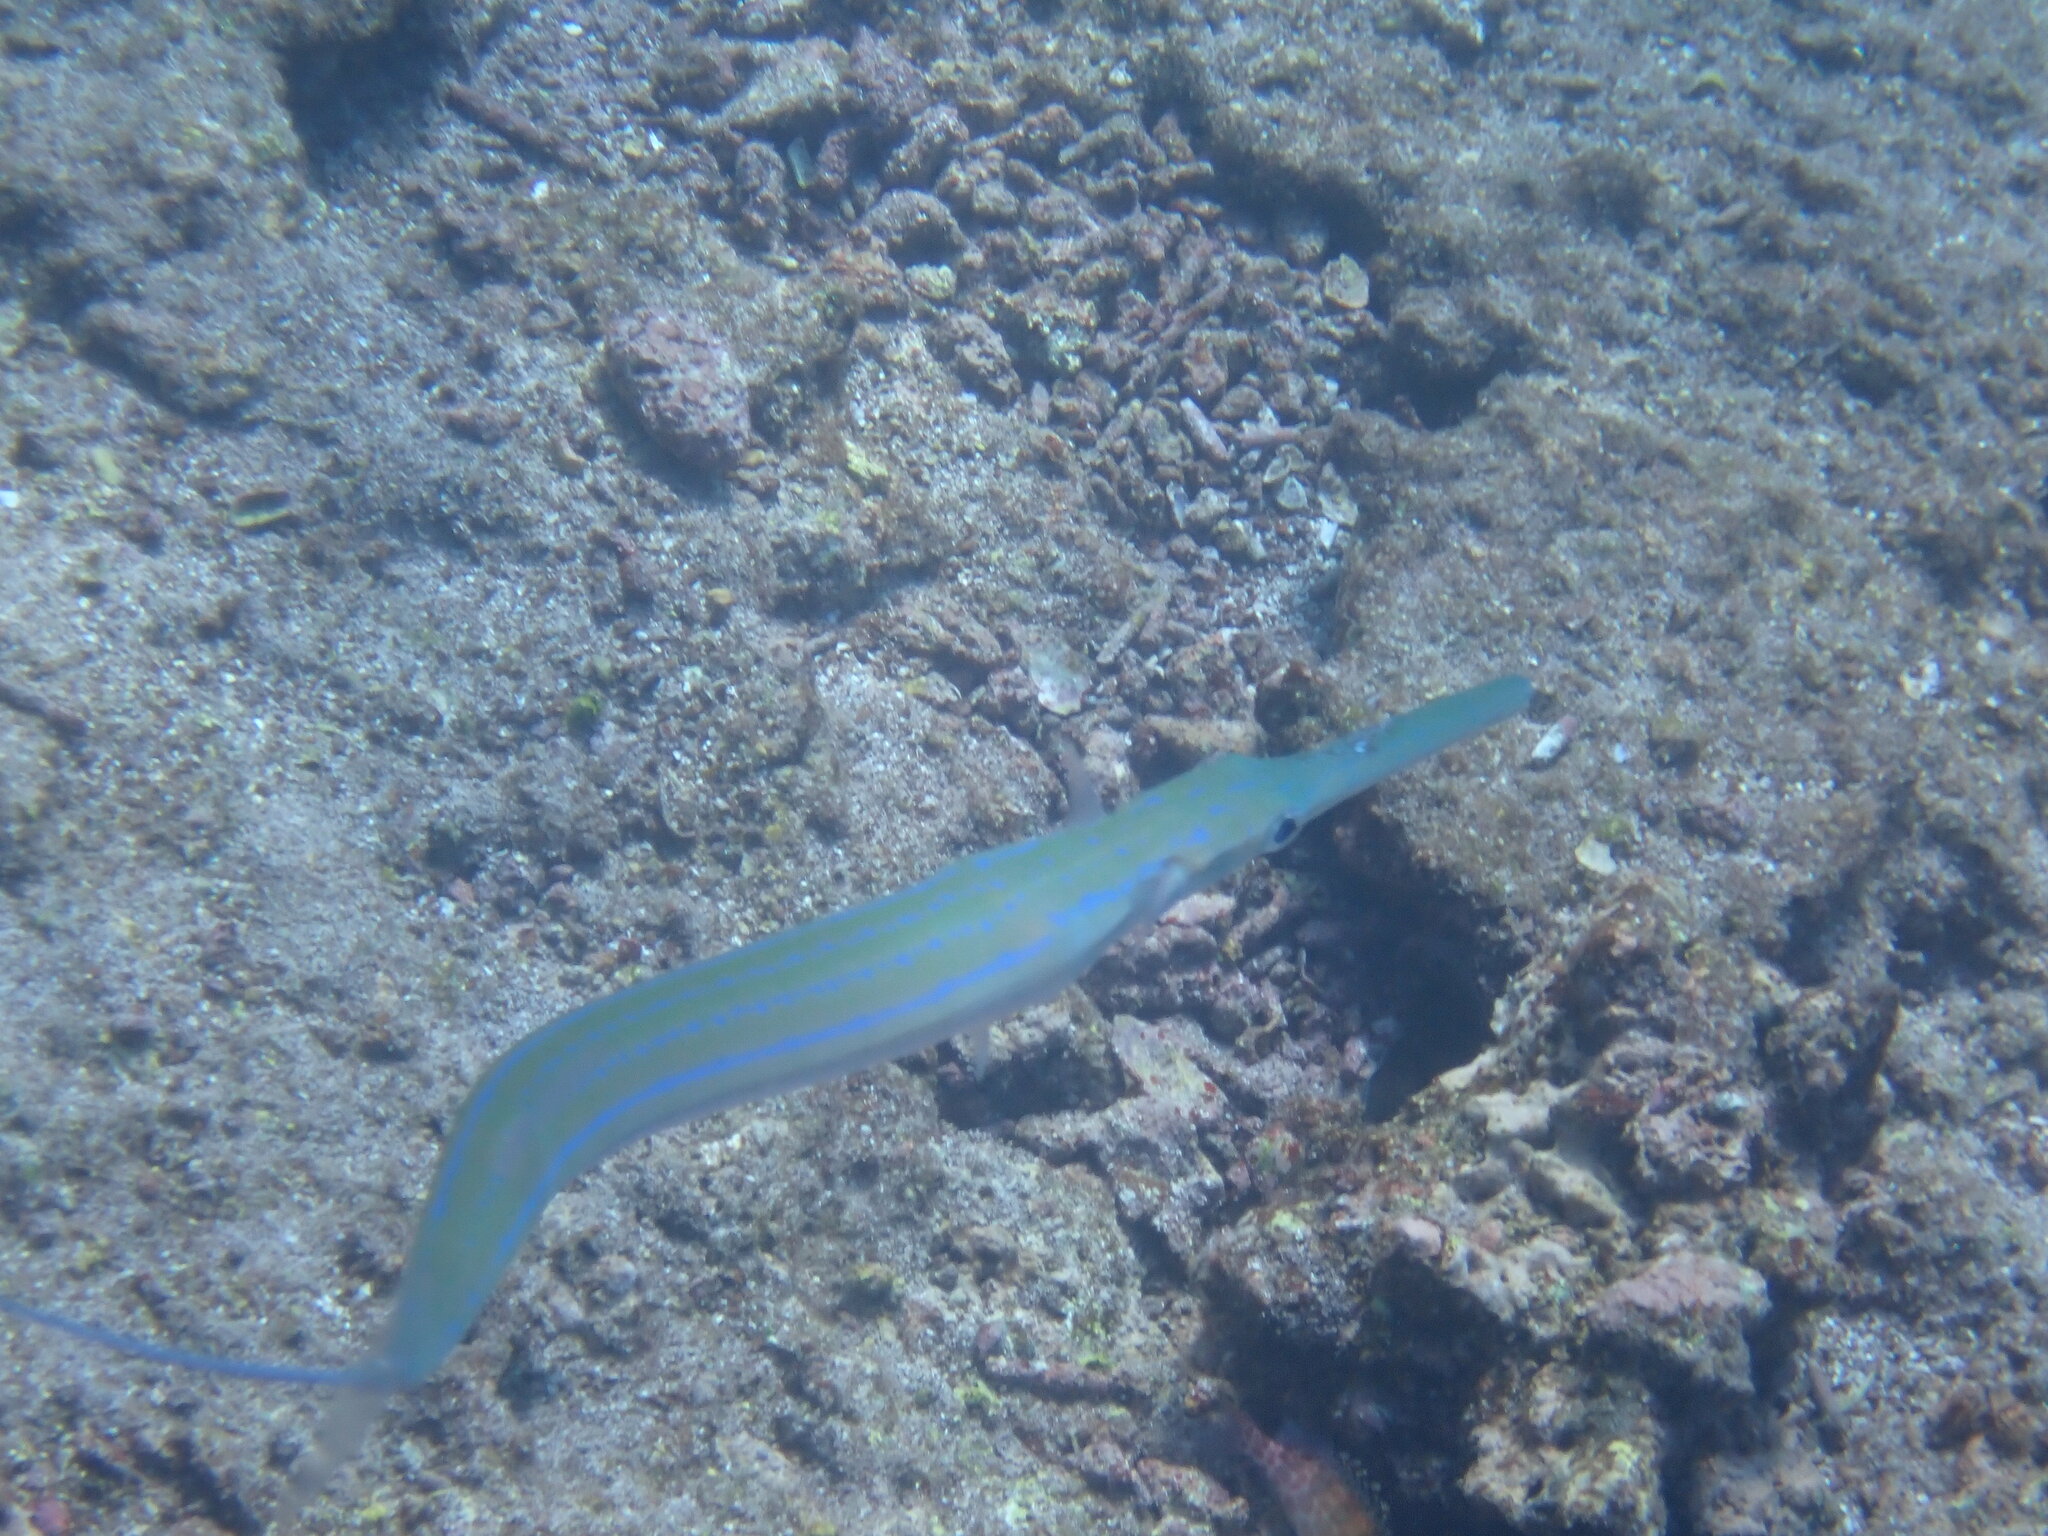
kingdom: Animalia
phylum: Chordata
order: Syngnathiformes
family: Fistulariidae
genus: Fistularia
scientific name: Fistularia commersonii
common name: Bluespotted cornetfish
